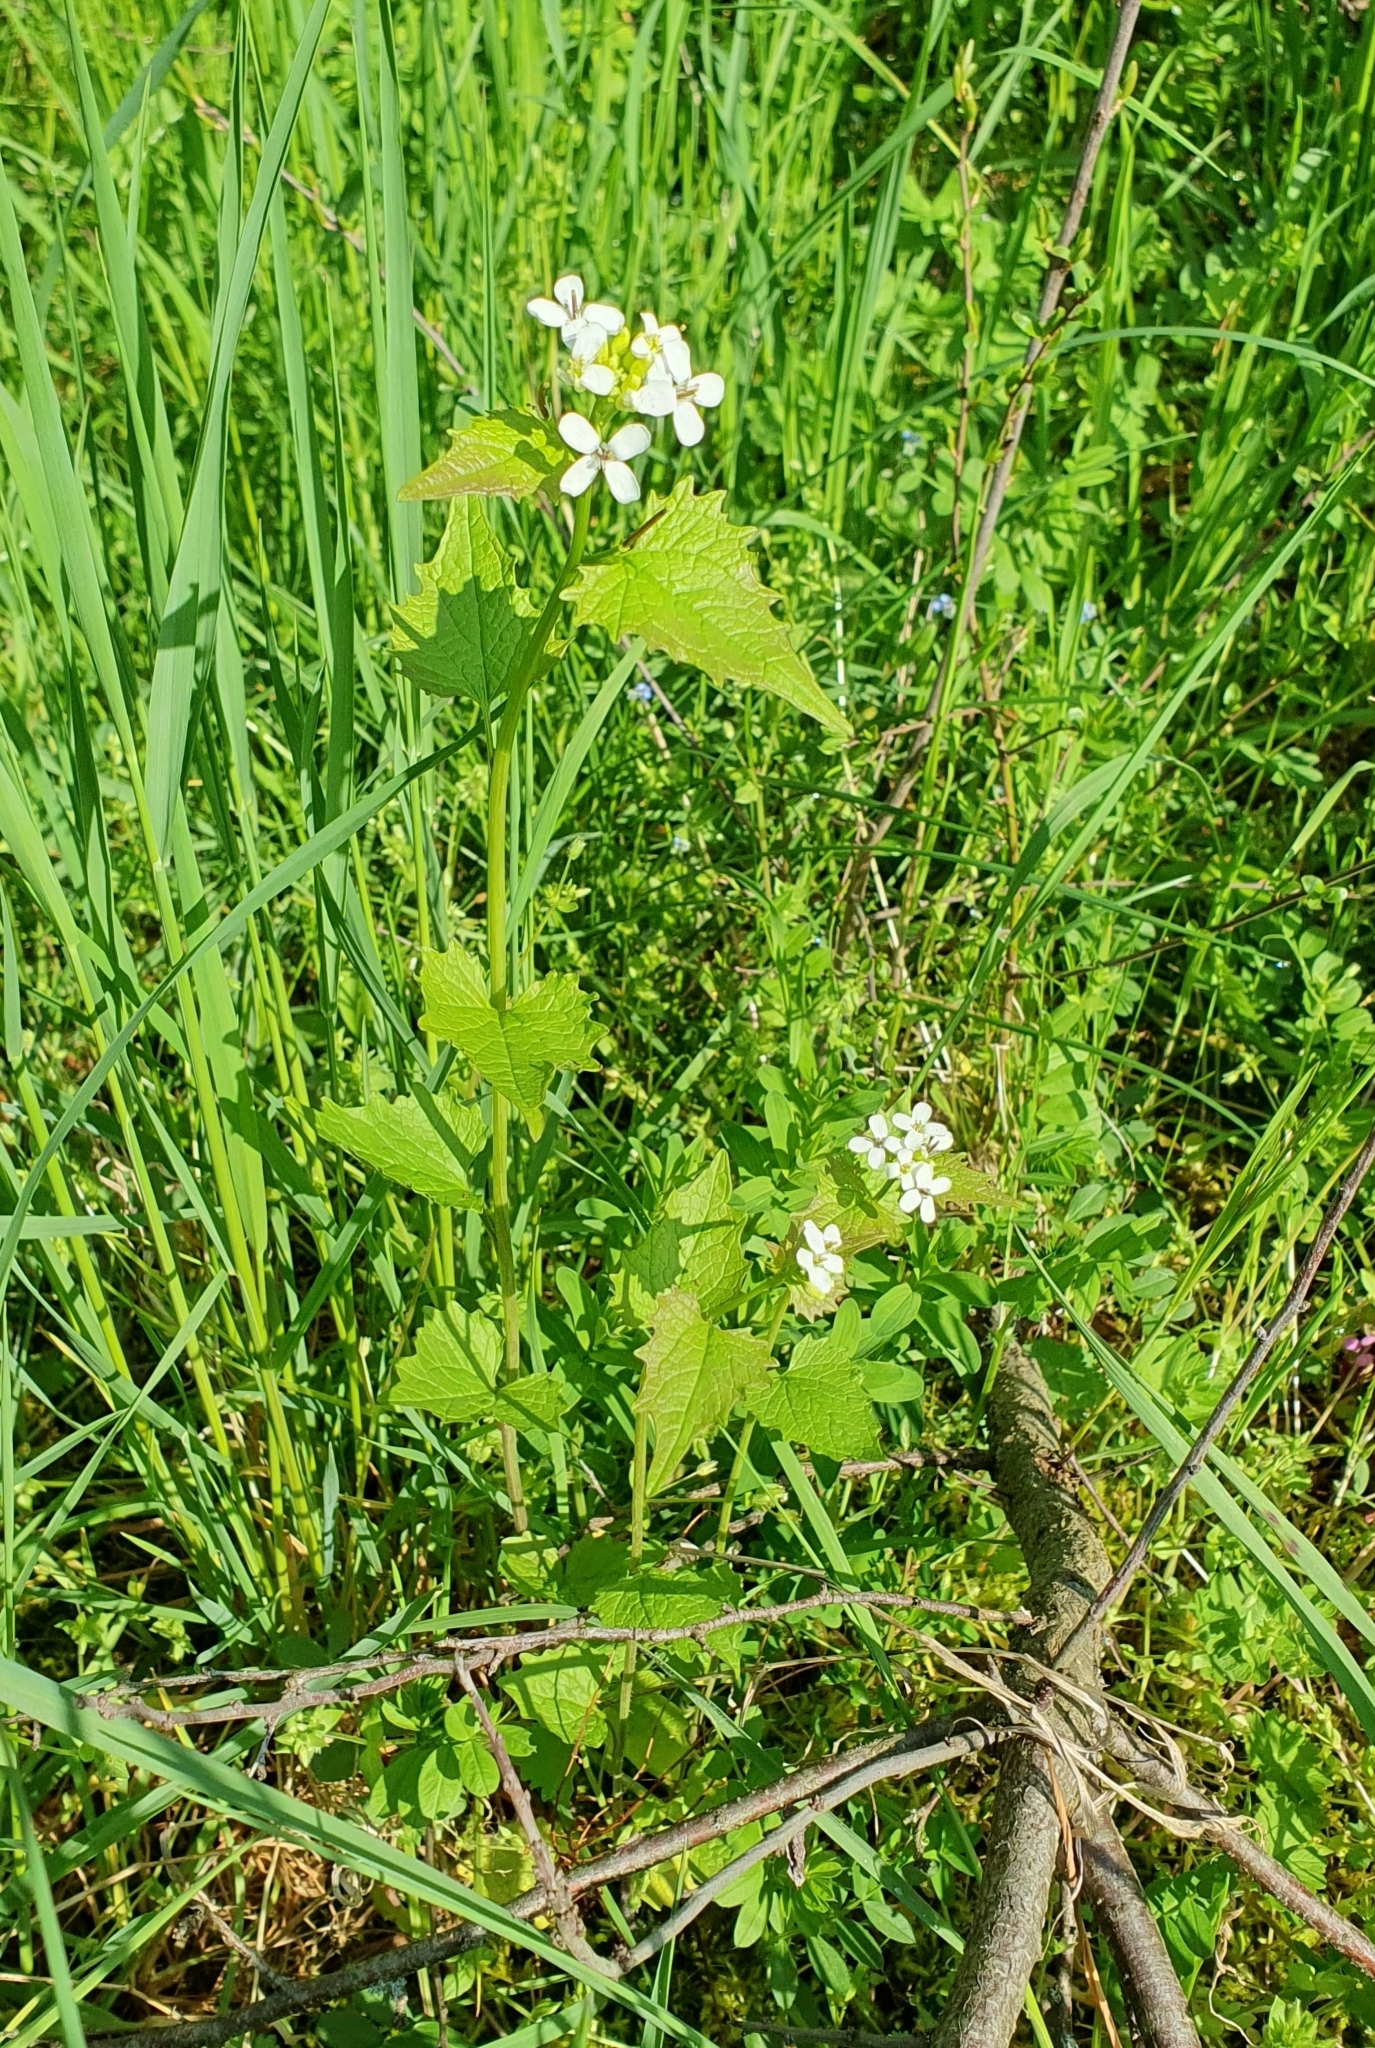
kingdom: Plantae
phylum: Tracheophyta
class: Magnoliopsida
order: Brassicales
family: Brassicaceae
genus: Alliaria
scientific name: Alliaria petiolata
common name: Garlic mustard
